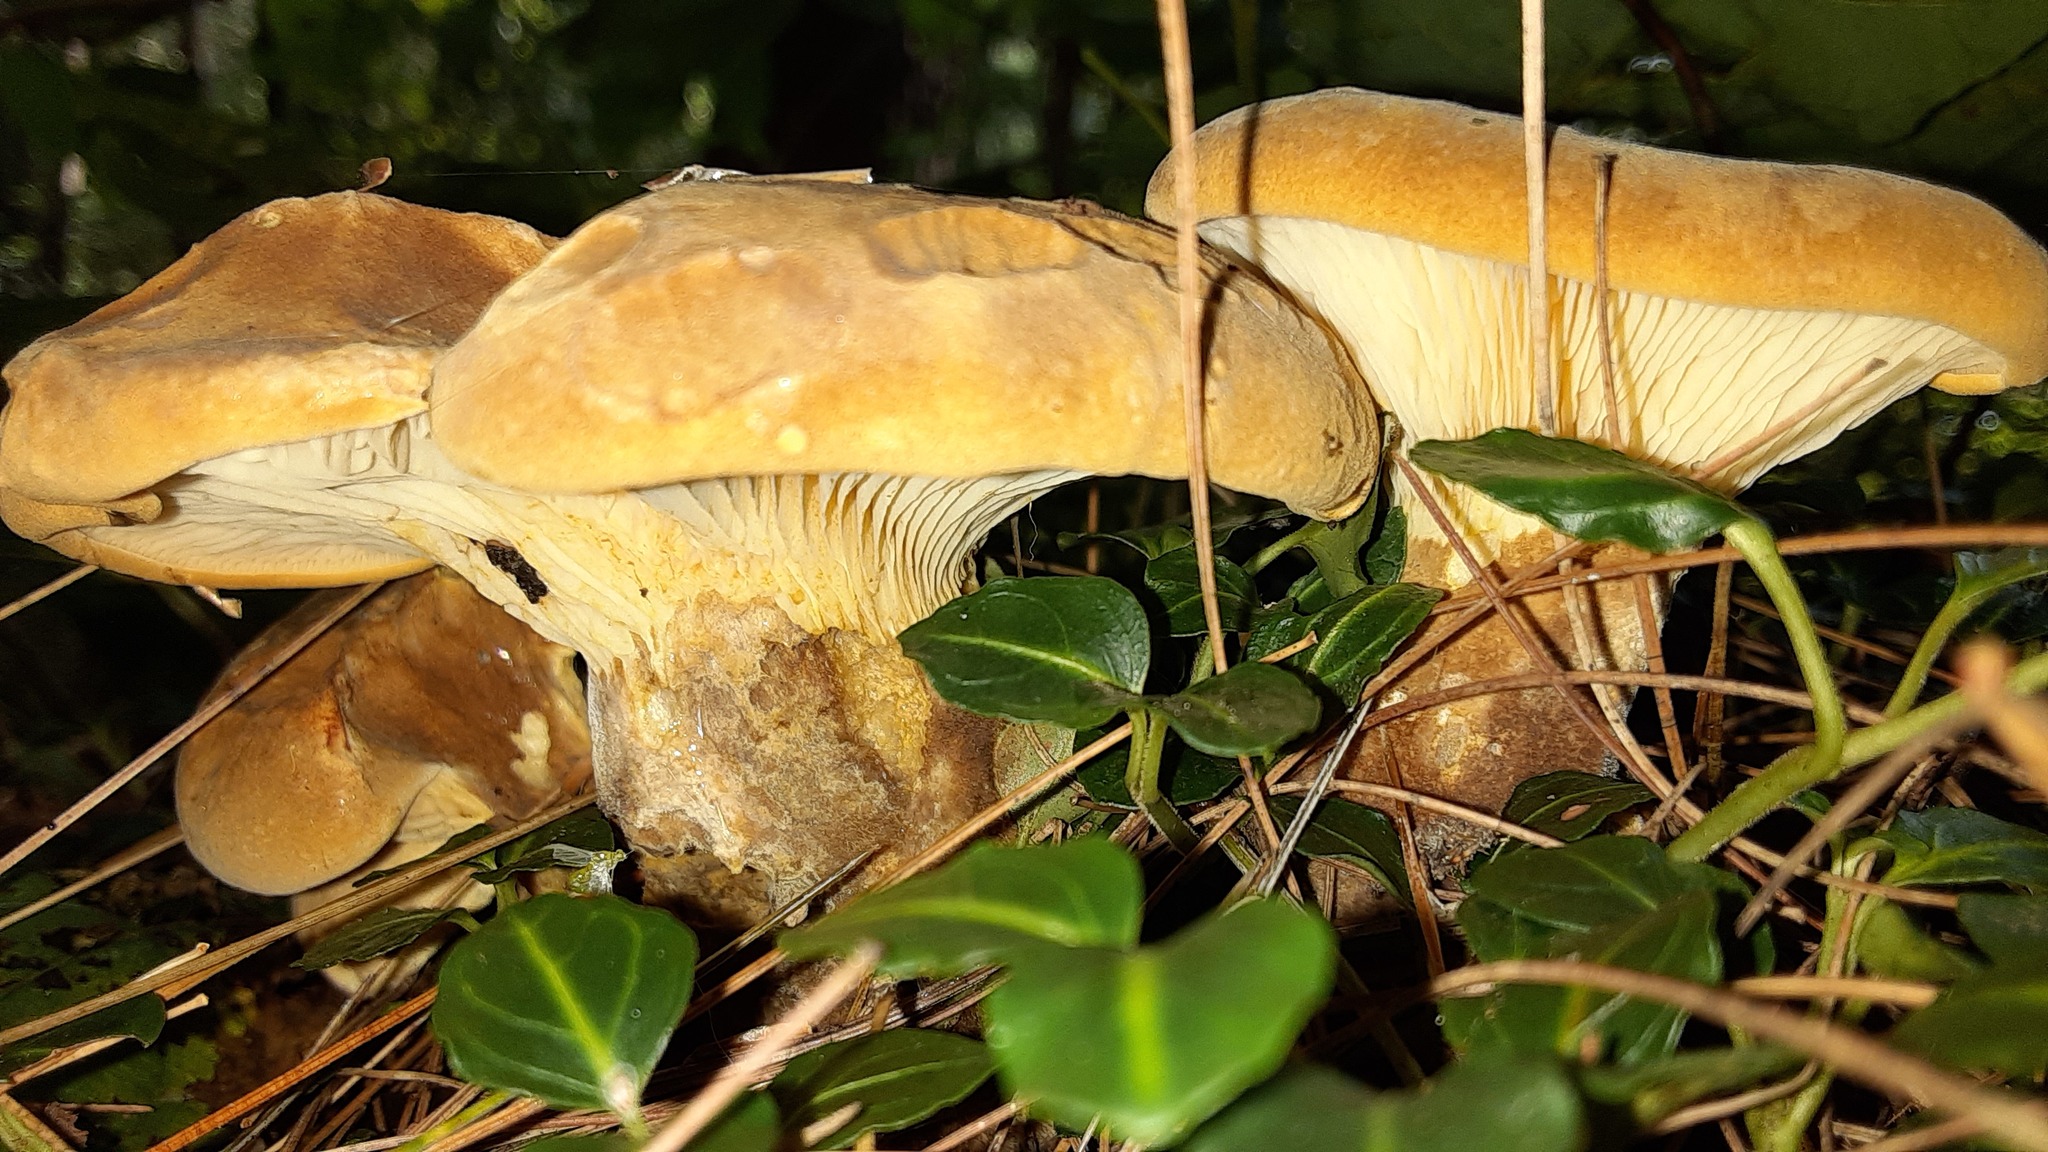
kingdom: Fungi
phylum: Basidiomycota
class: Agaricomycetes
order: Boletales
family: Tapinellaceae
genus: Tapinella
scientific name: Tapinella atrotomentosa
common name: Velvet rollrim
